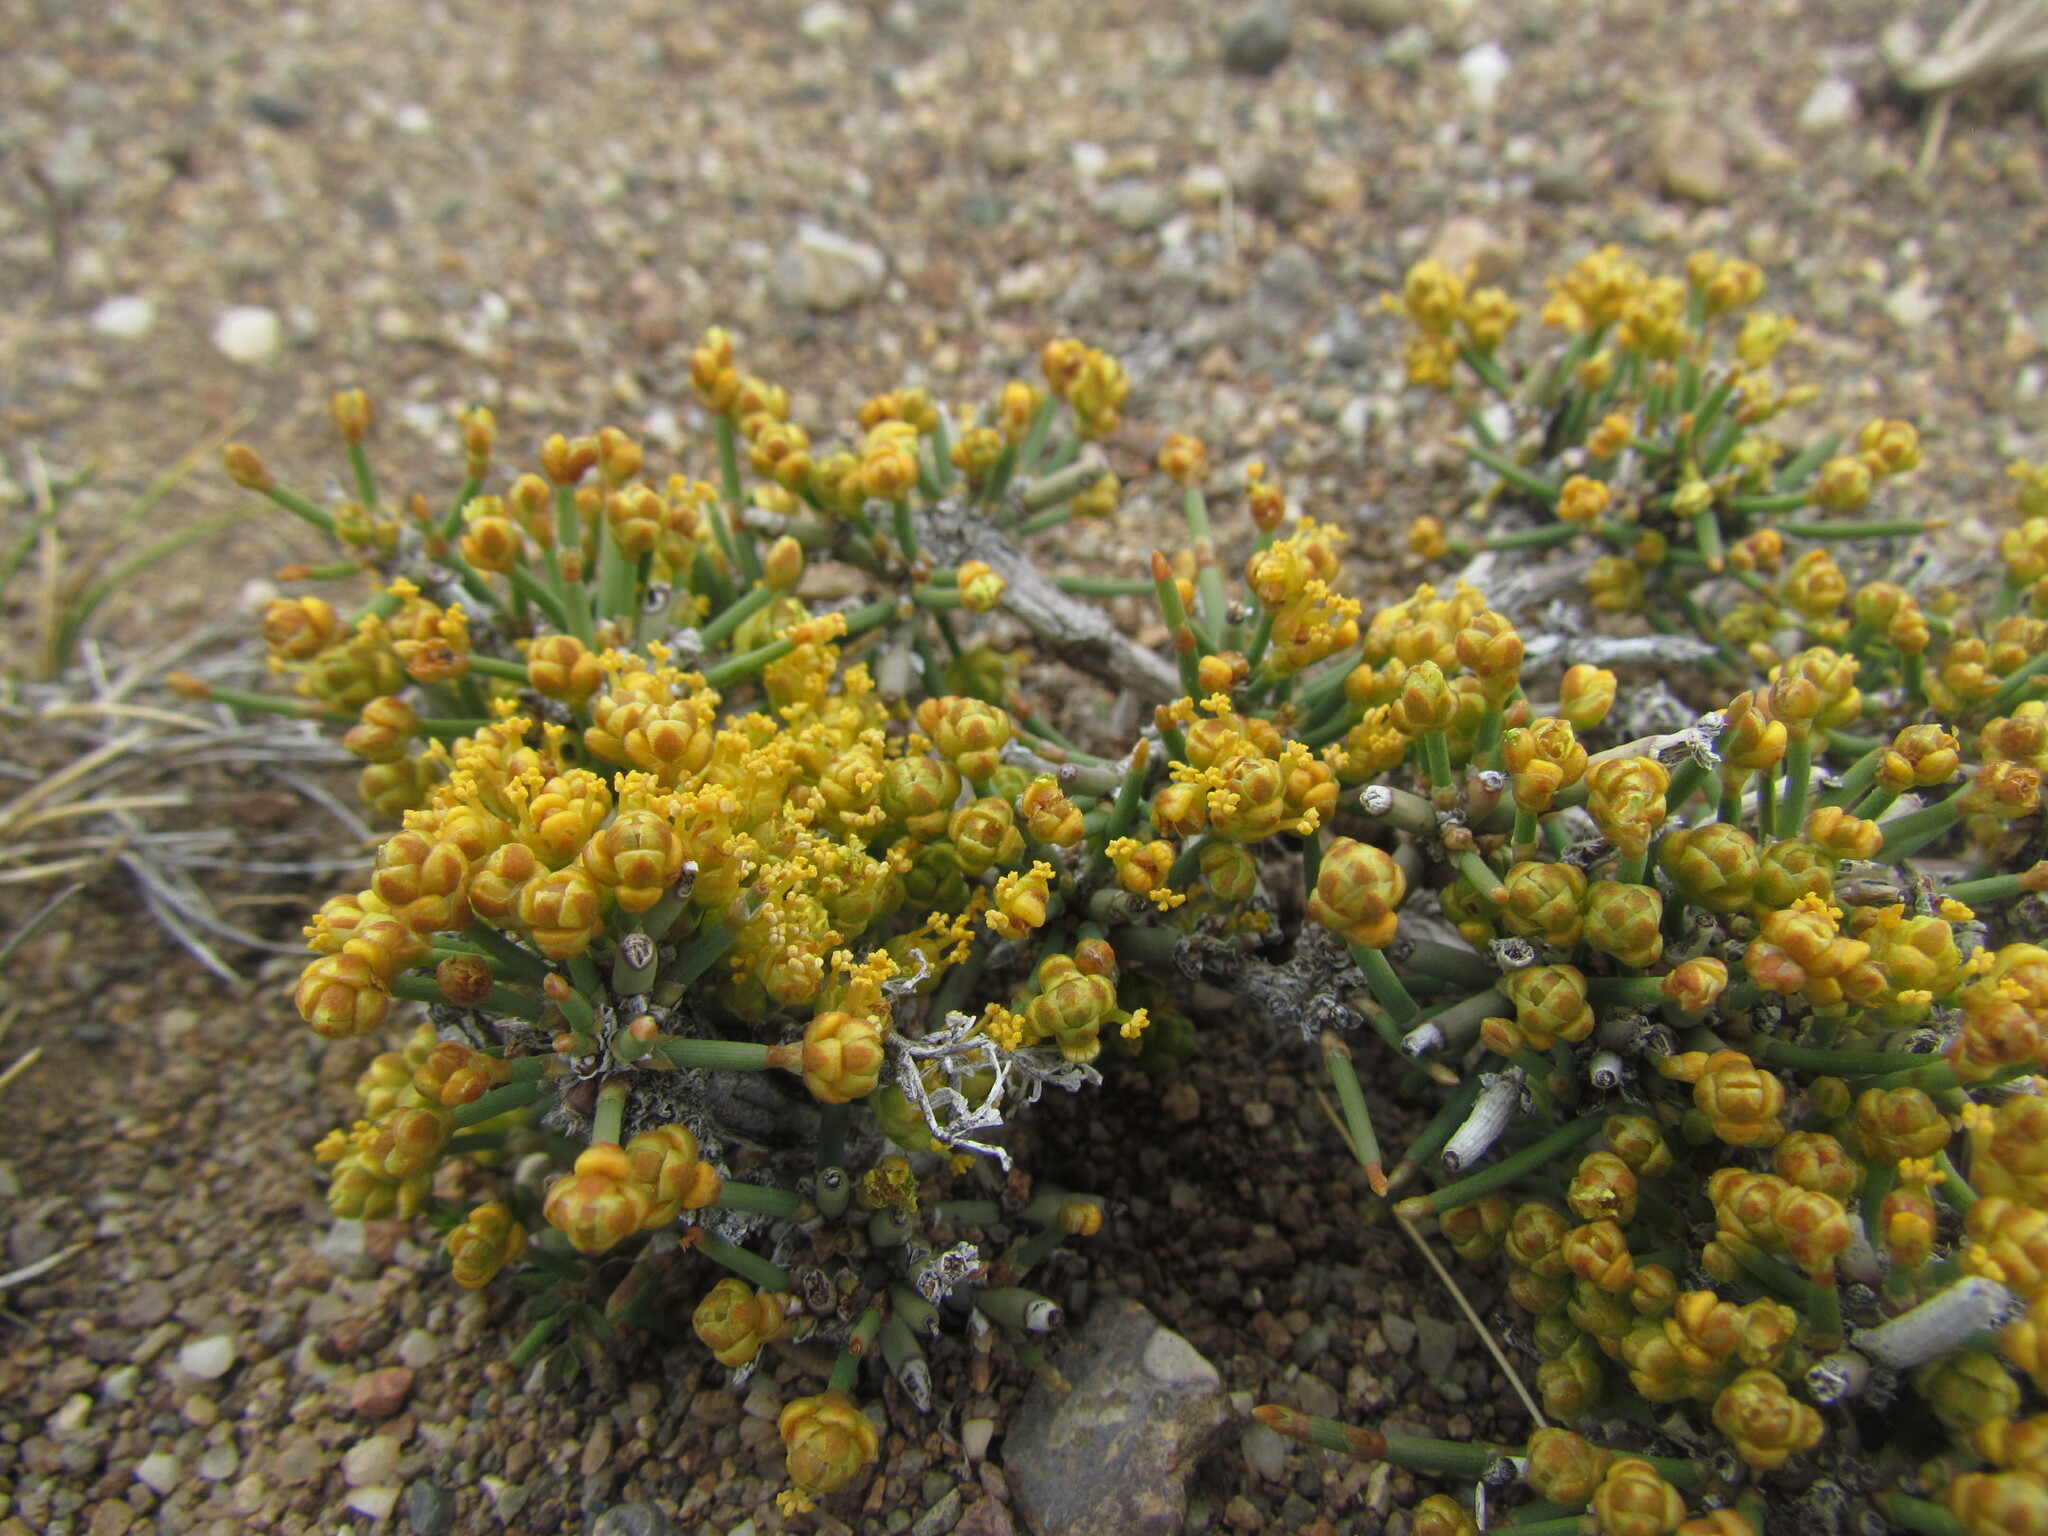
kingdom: Plantae
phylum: Tracheophyta
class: Gnetopsida
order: Ephedrales
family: Ephedraceae
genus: Ephedra
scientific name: Ephedra frustillata
